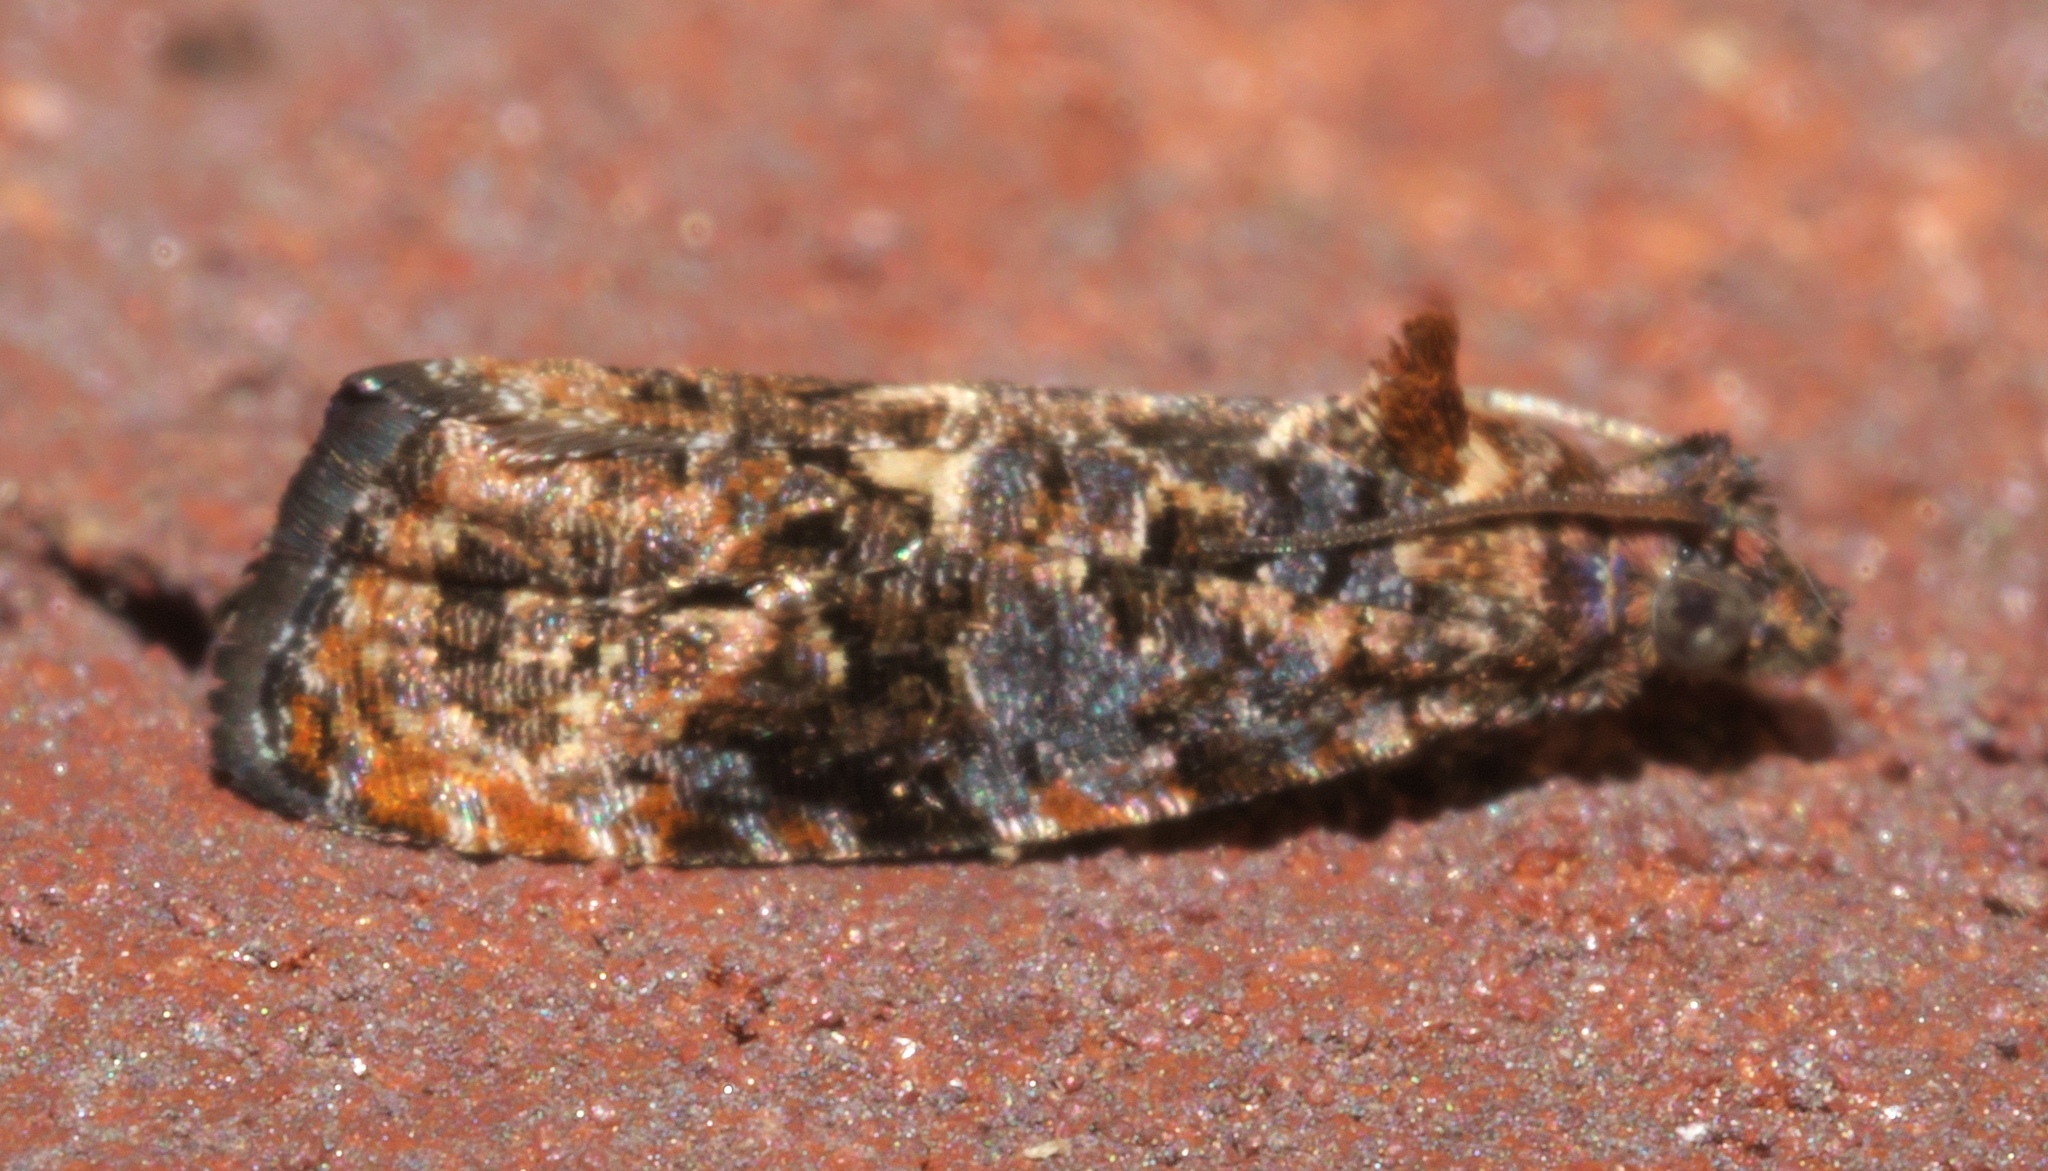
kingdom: Animalia
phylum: Arthropoda
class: Insecta
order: Lepidoptera
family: Tortricidae
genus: Endothenia
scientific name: Endothenia hebesana
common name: Verbena bud moth
